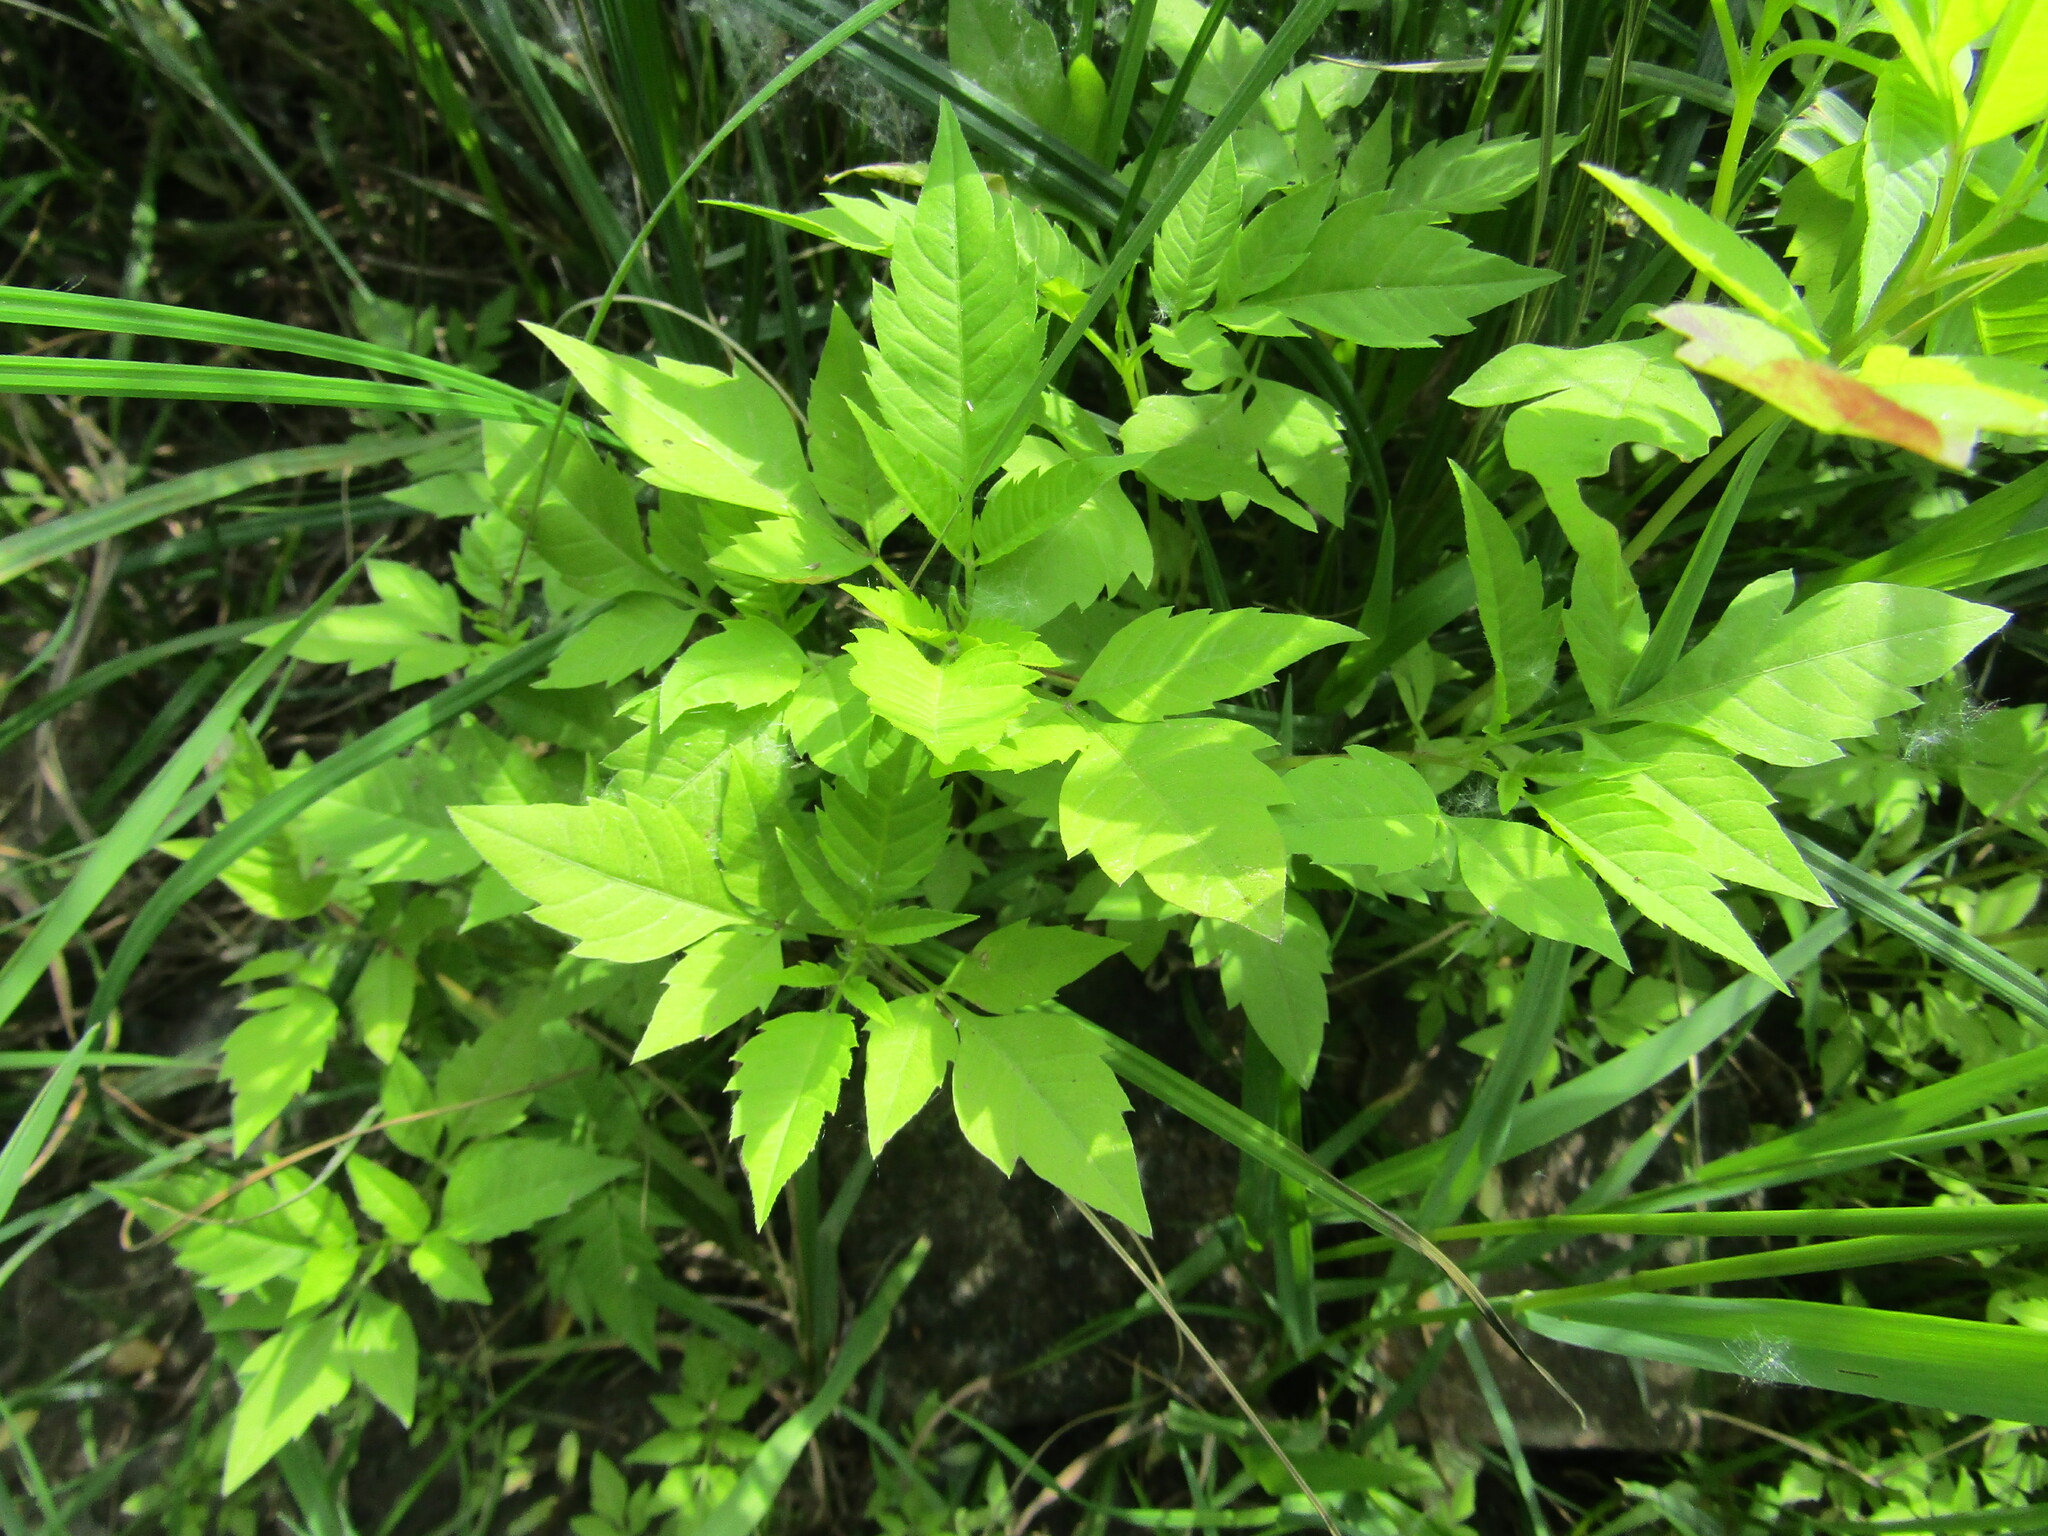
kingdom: Plantae
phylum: Tracheophyta
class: Magnoliopsida
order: Asterales
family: Asteraceae
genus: Bidens
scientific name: Bidens frondosa
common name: Beggarticks
